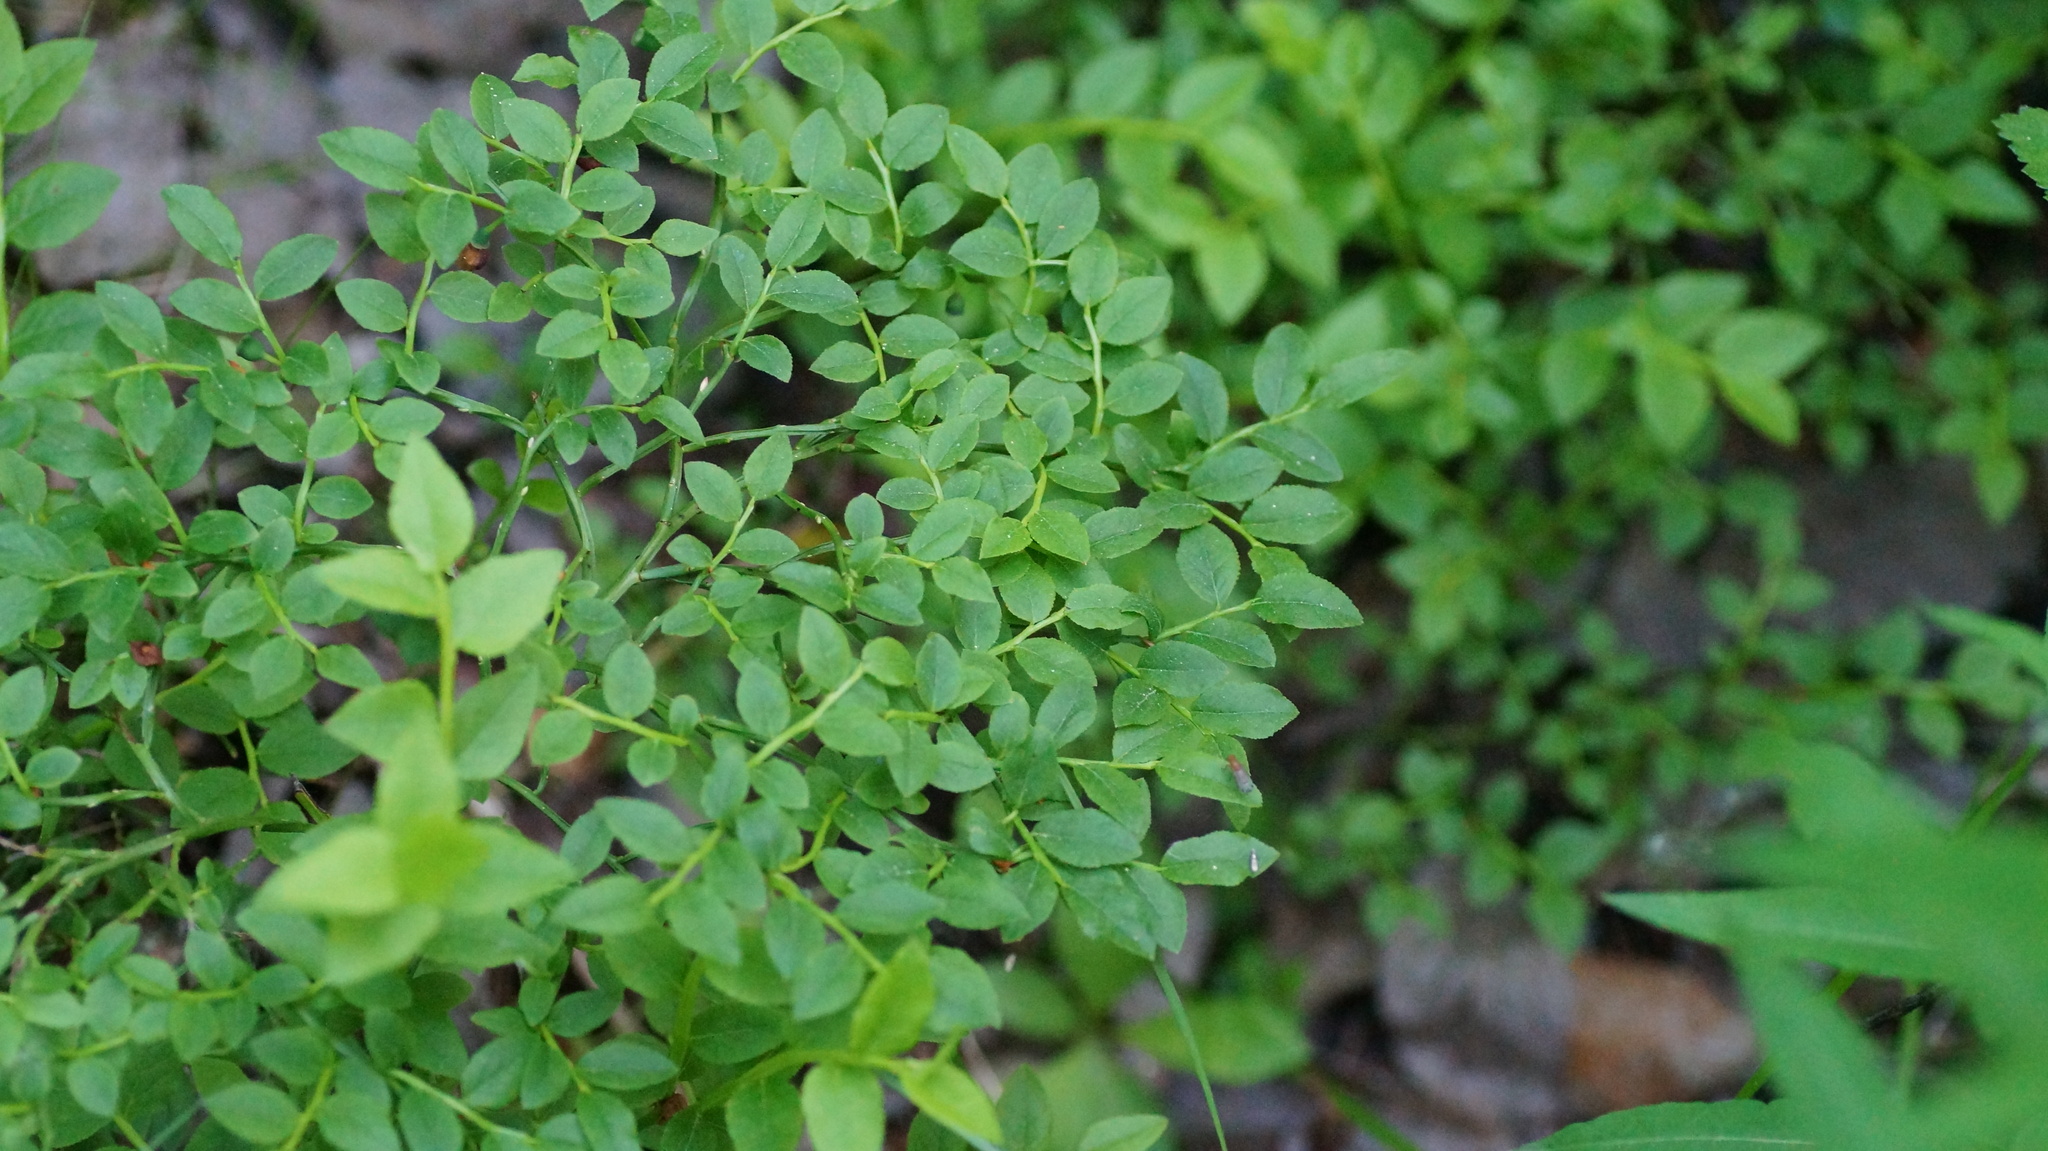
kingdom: Plantae
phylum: Tracheophyta
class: Magnoliopsida
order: Ericales
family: Ericaceae
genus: Vaccinium
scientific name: Vaccinium myrtillus
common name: Bilberry
